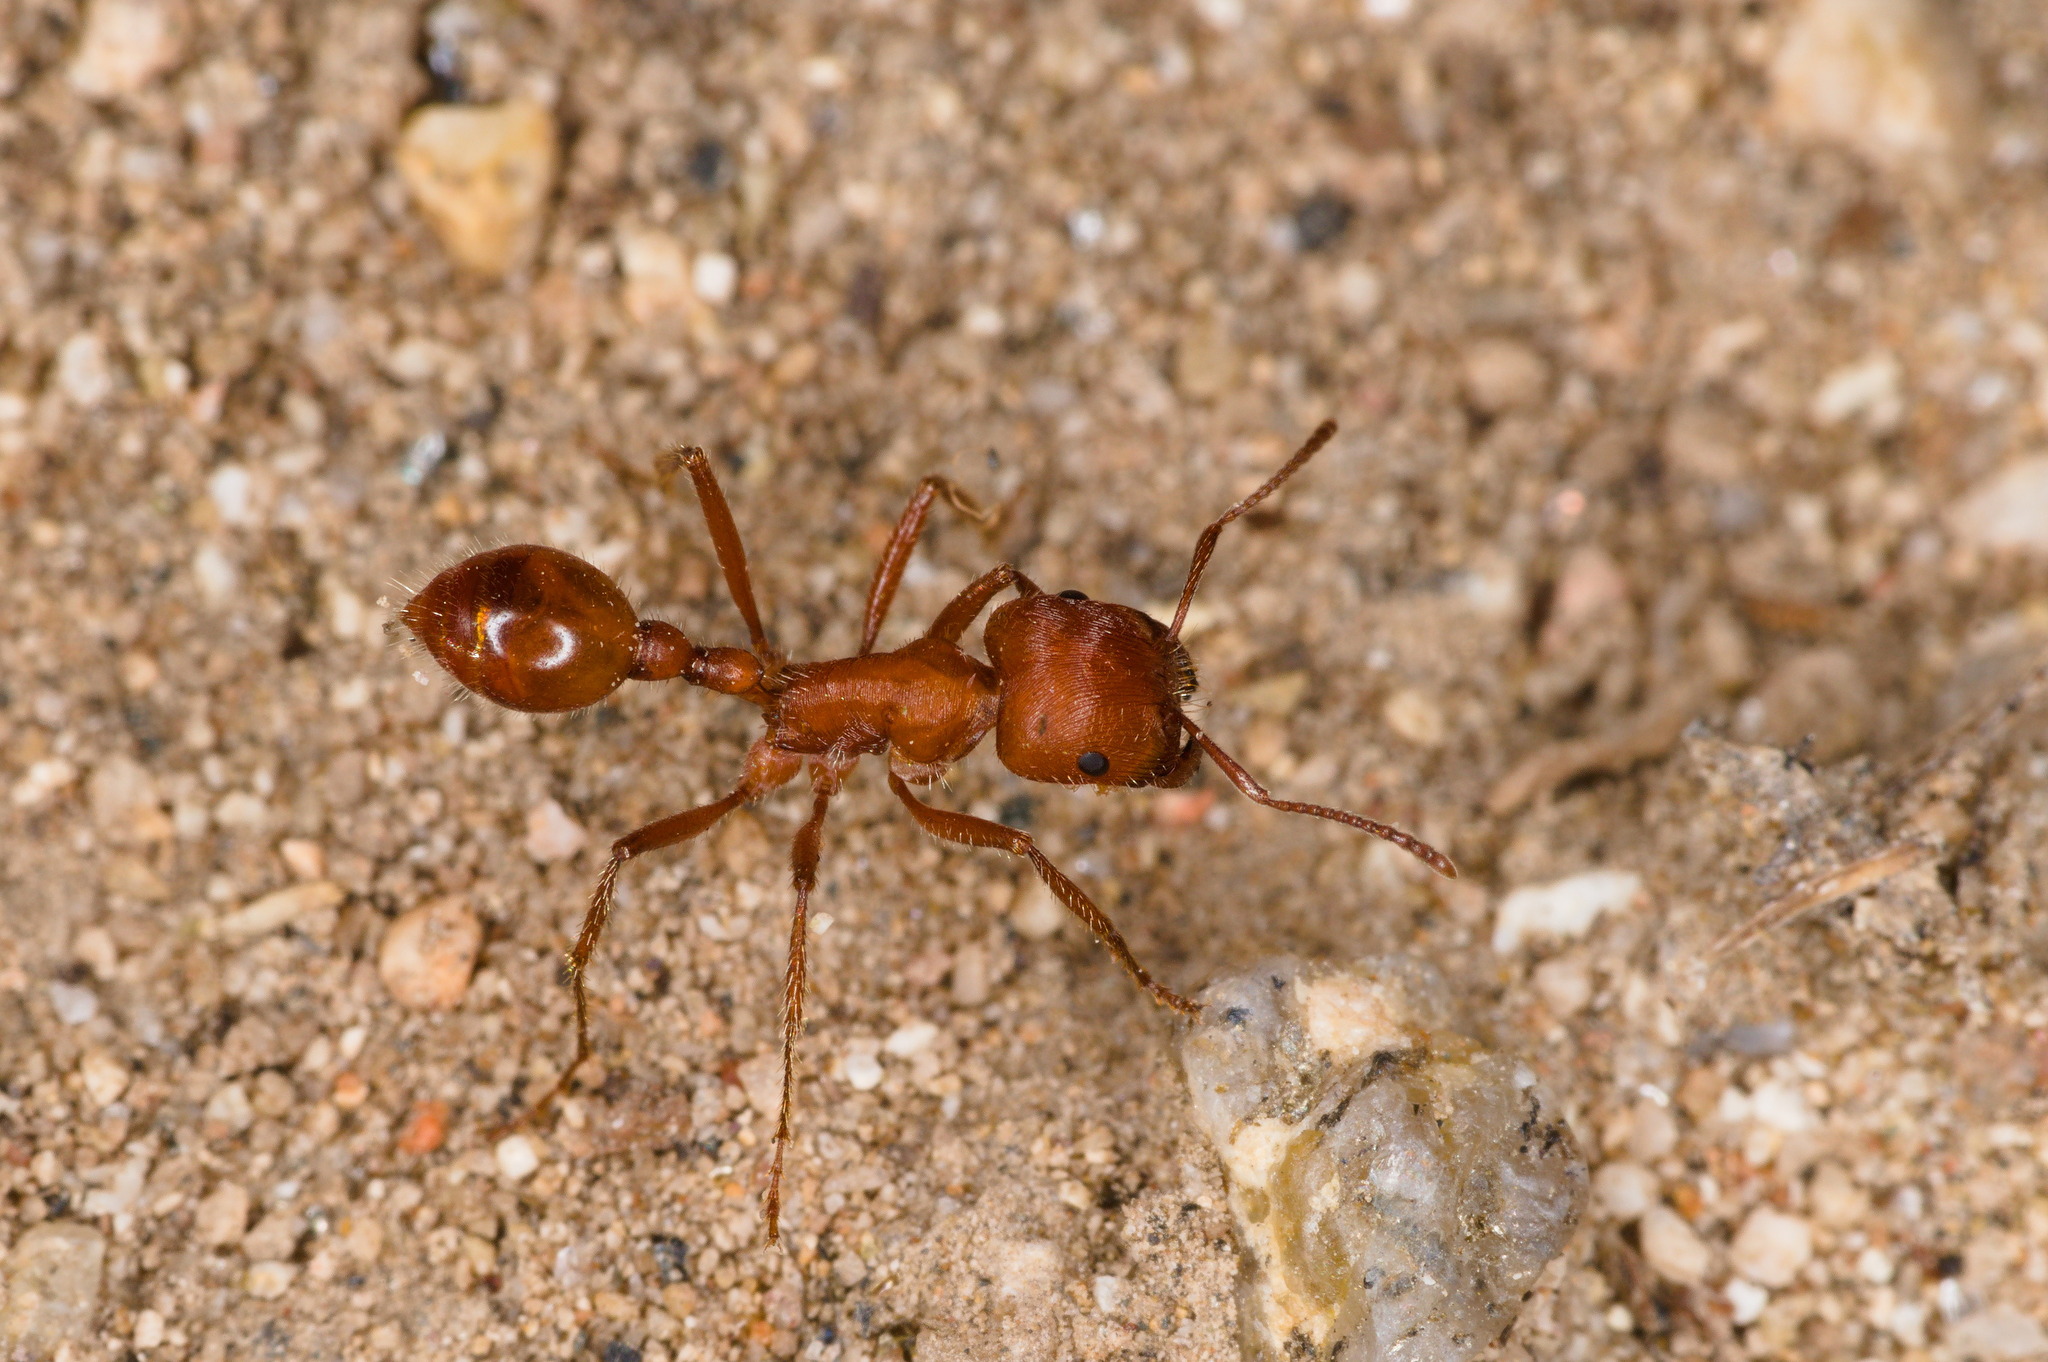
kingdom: Animalia
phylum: Arthropoda
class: Insecta
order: Hymenoptera
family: Formicidae
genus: Pogonomyrmex
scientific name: Pogonomyrmex maricopa
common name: Maricopa harvester ant
